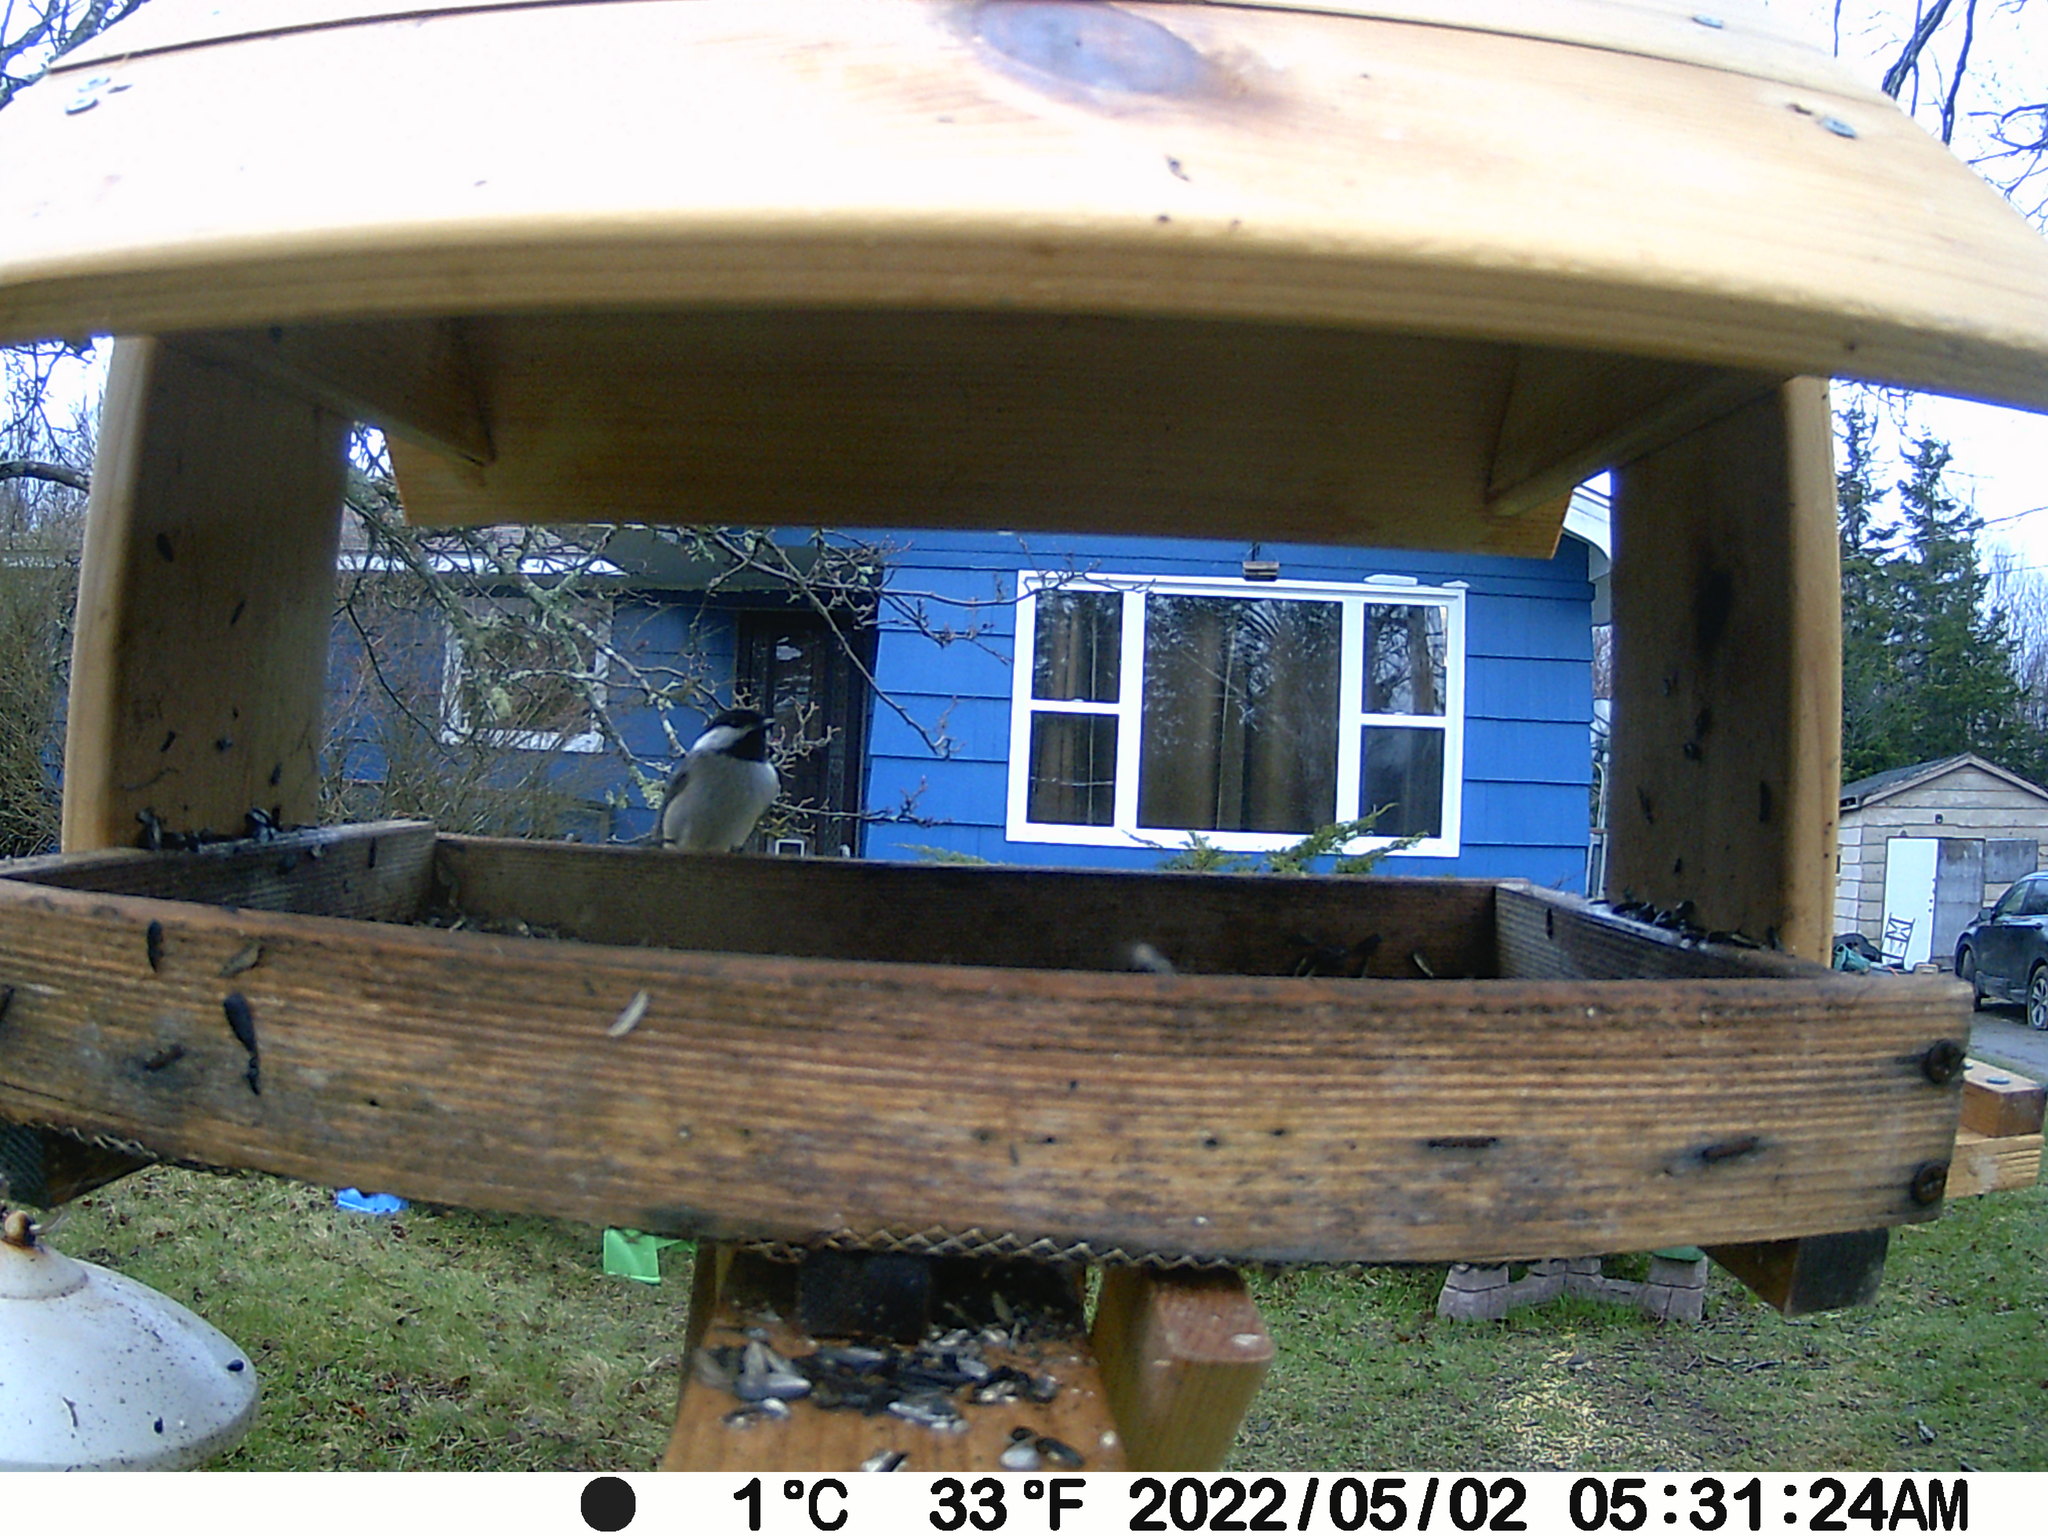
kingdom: Animalia
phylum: Chordata
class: Aves
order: Passeriformes
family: Paridae
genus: Poecile
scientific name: Poecile atricapillus
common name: Black-capped chickadee
